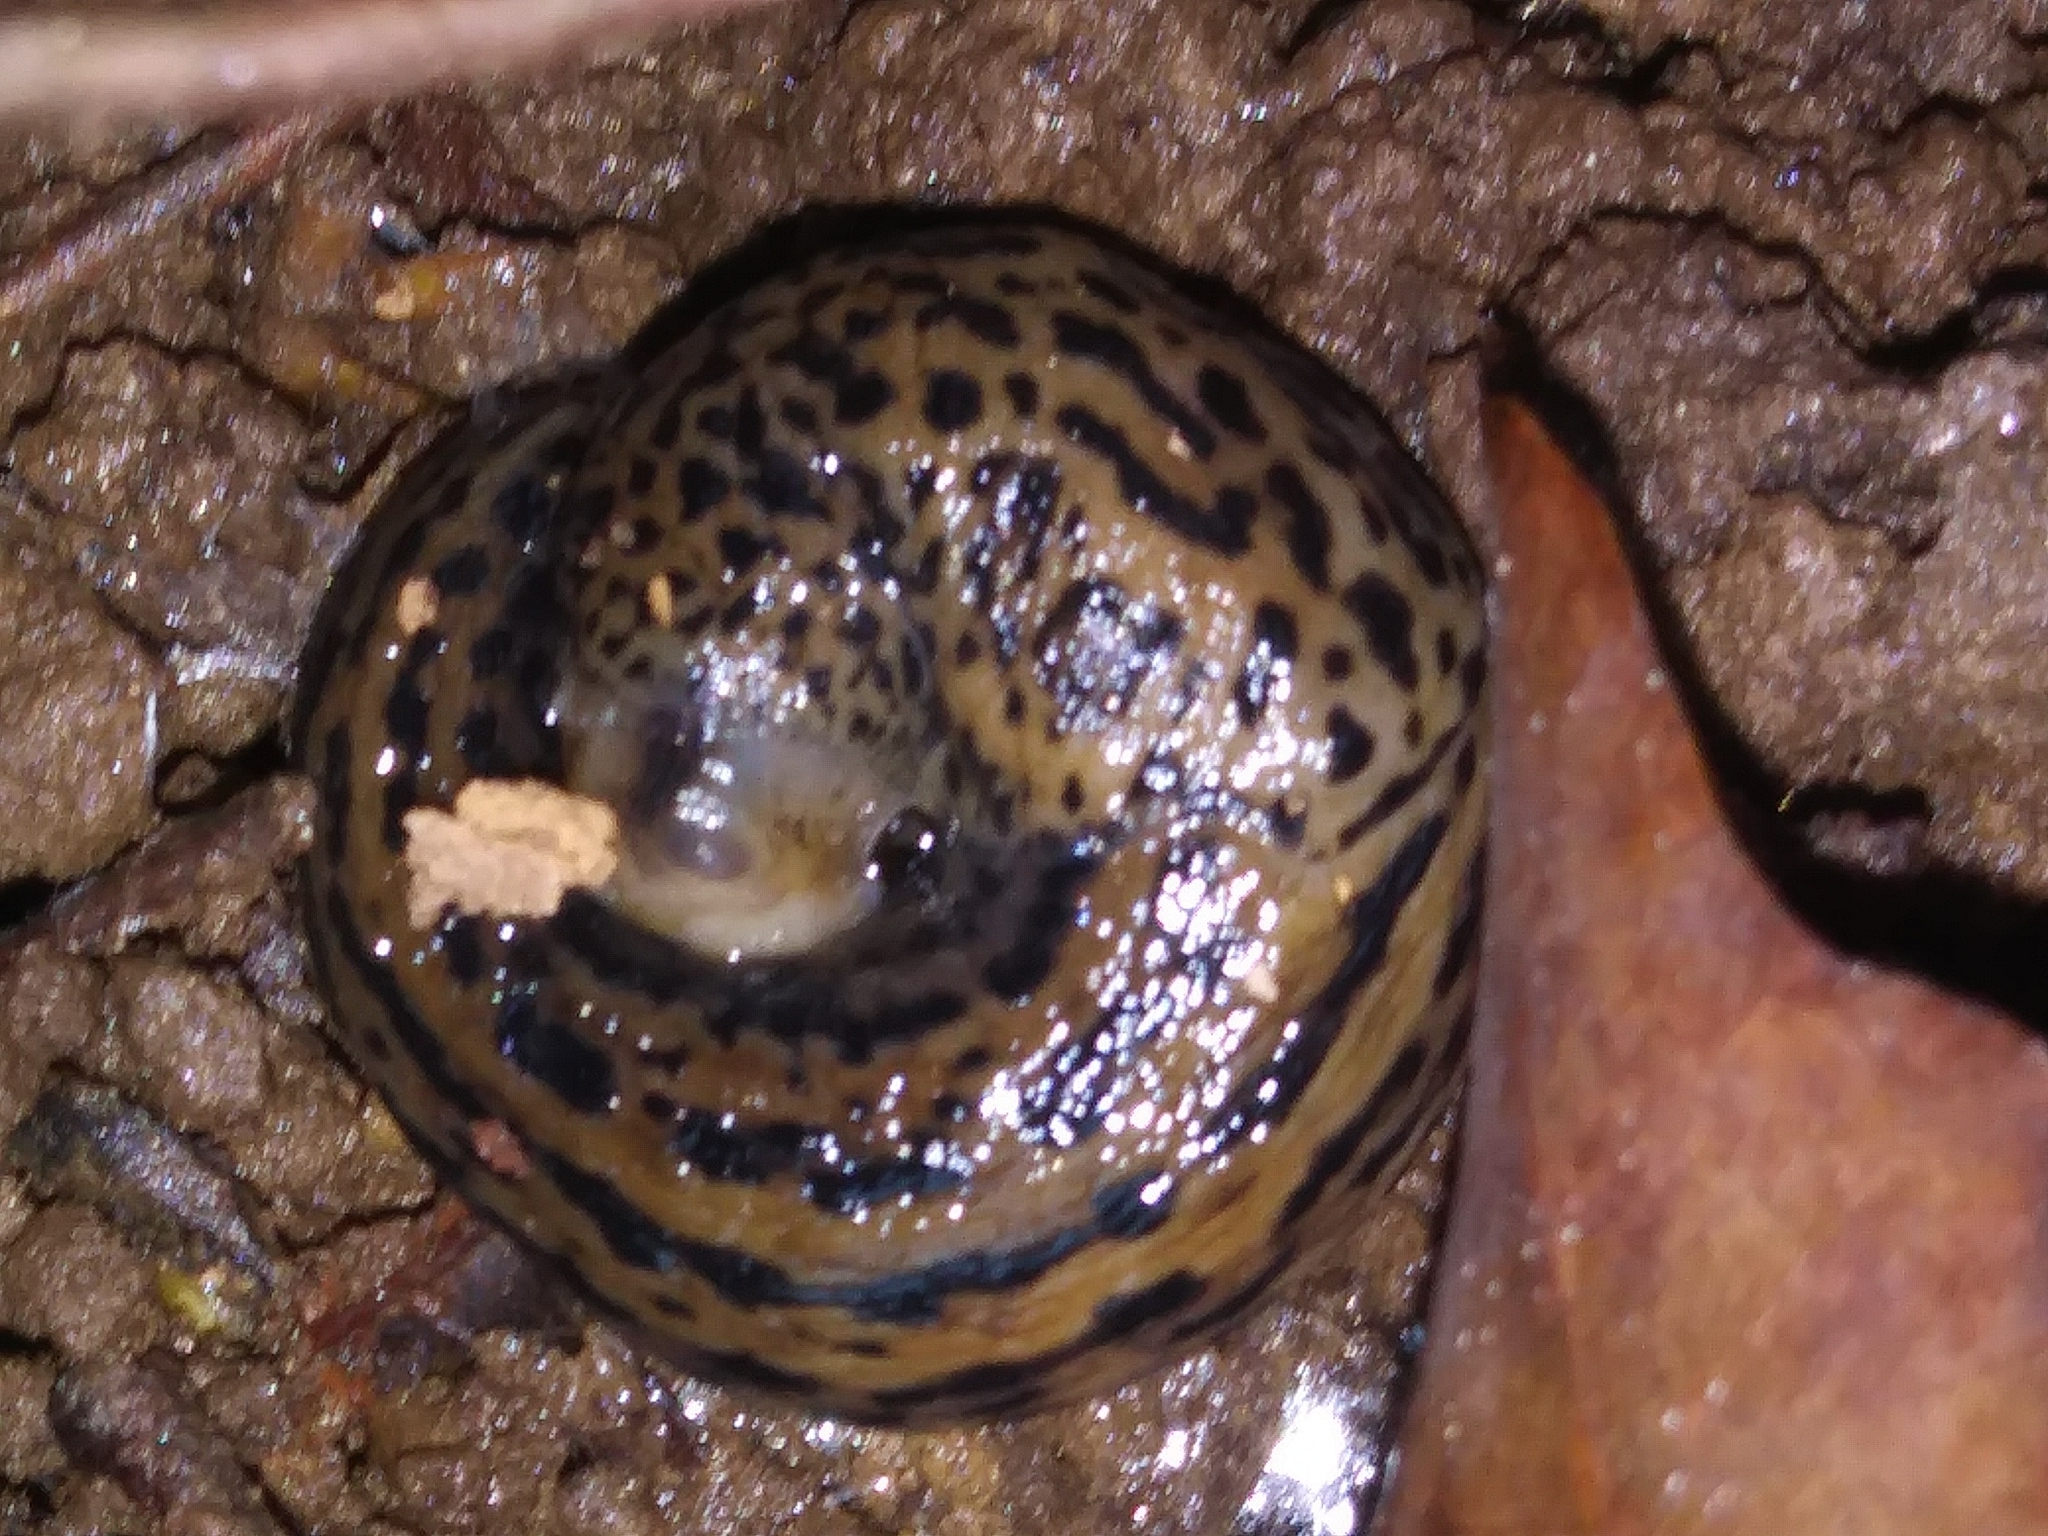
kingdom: Animalia
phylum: Mollusca
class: Gastropoda
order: Stylommatophora
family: Limacidae
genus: Limax
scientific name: Limax maximus
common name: Great grey slug
